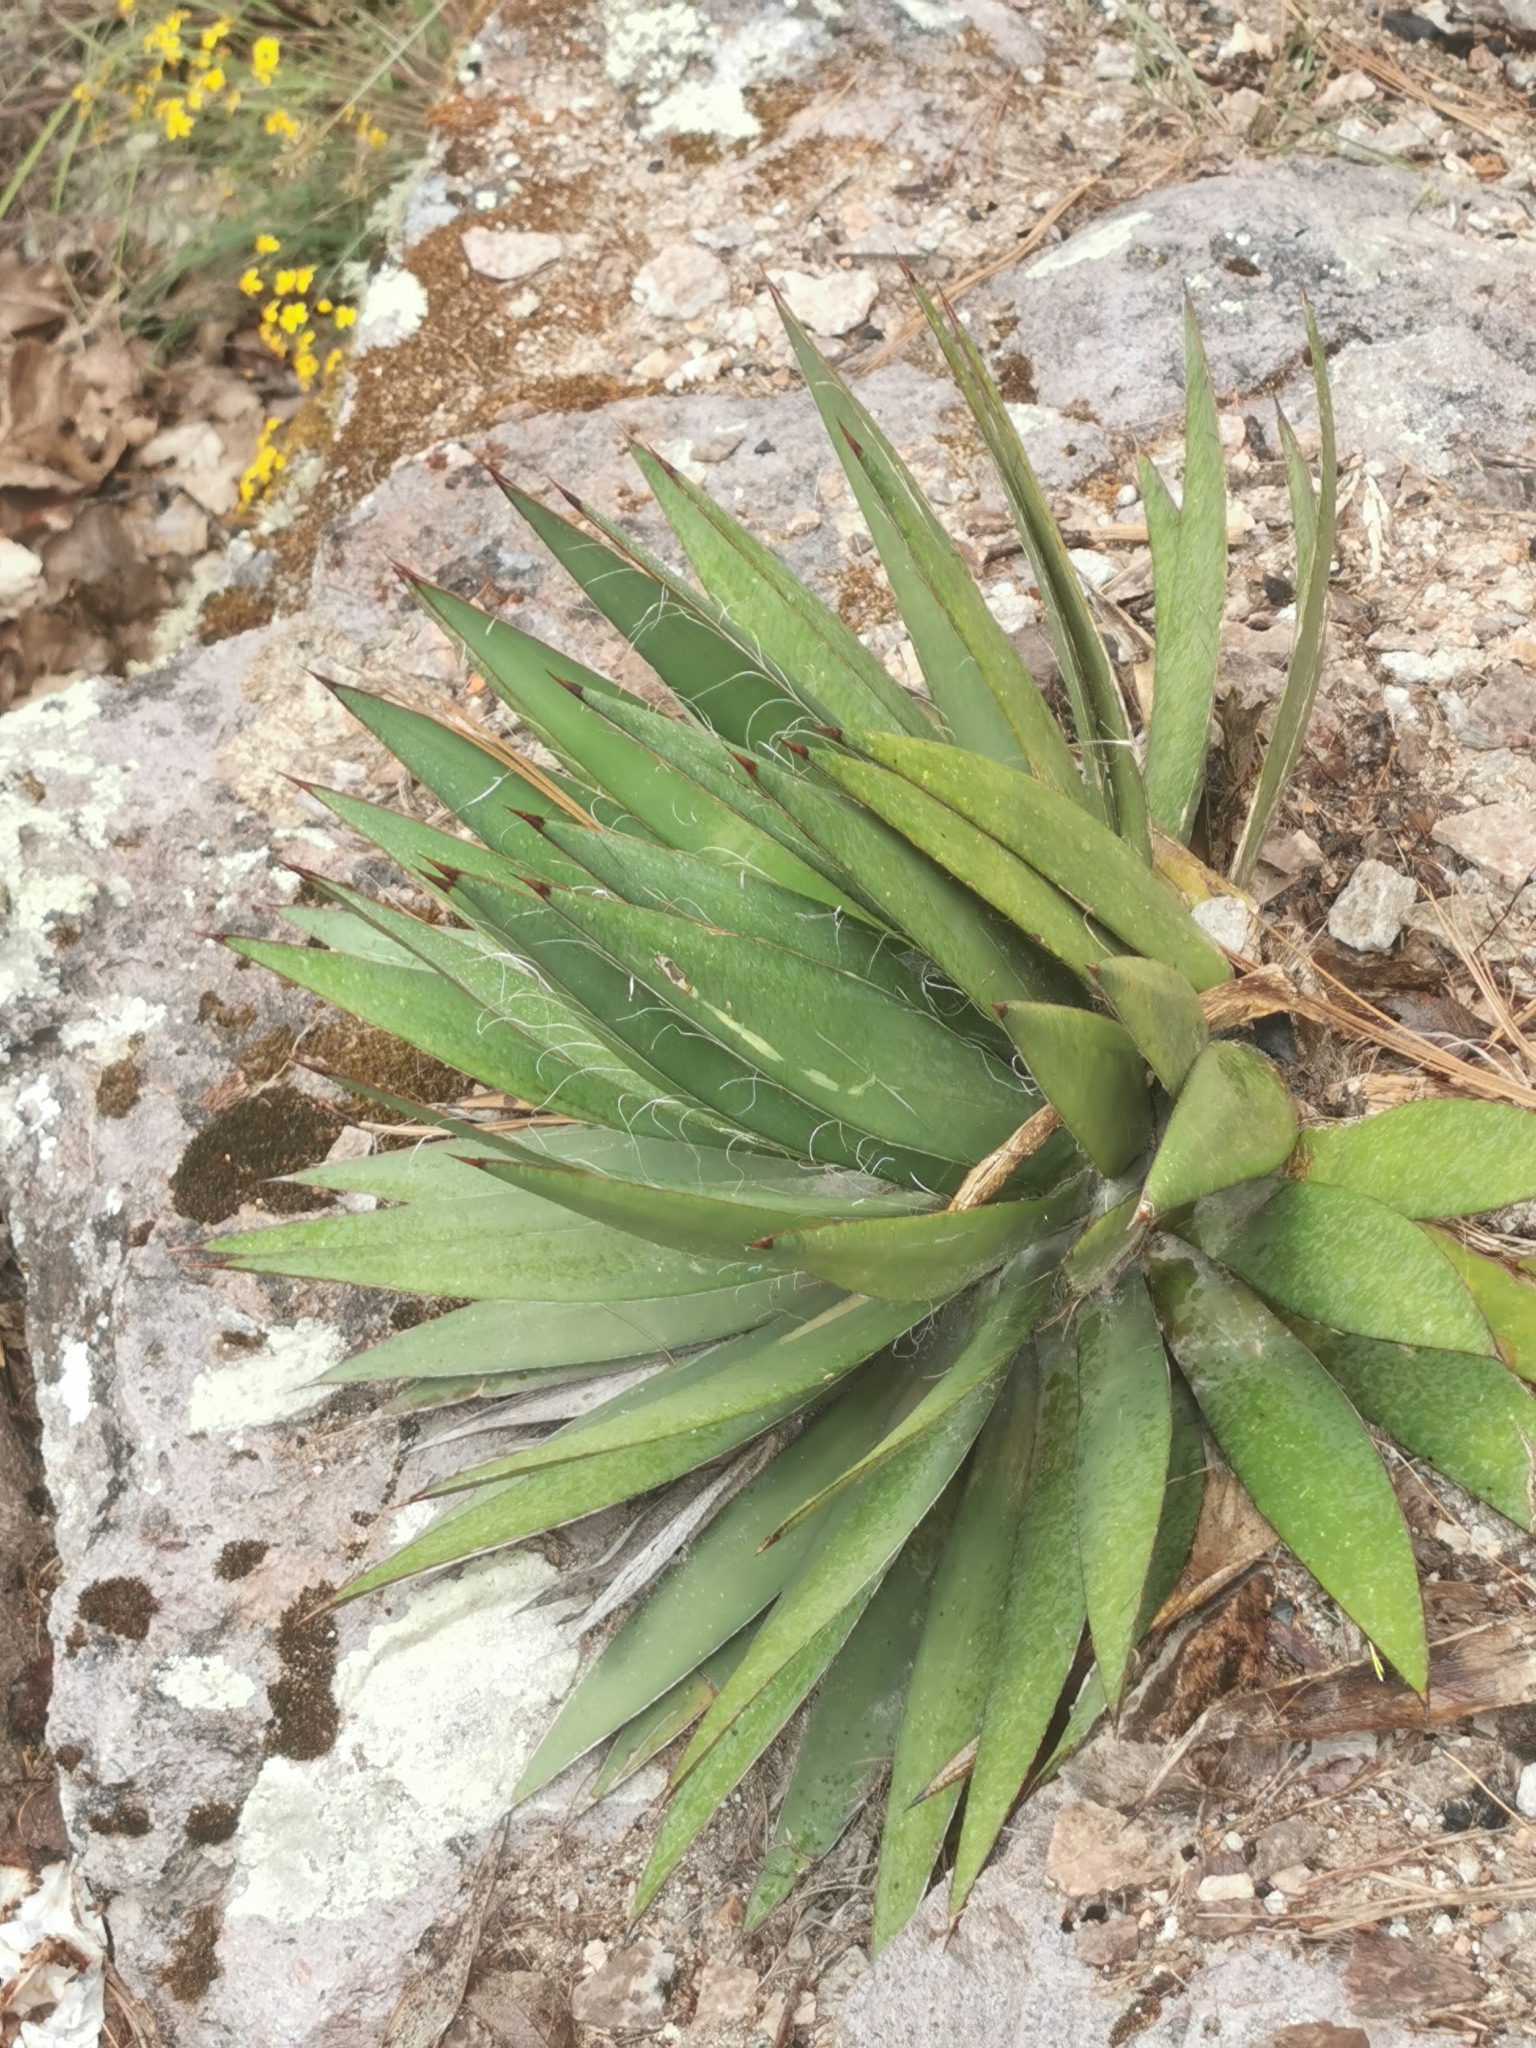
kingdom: Plantae
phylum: Tracheophyta
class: Liliopsida
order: Asparagales
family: Asparagaceae
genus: Agave
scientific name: Agave schottii
